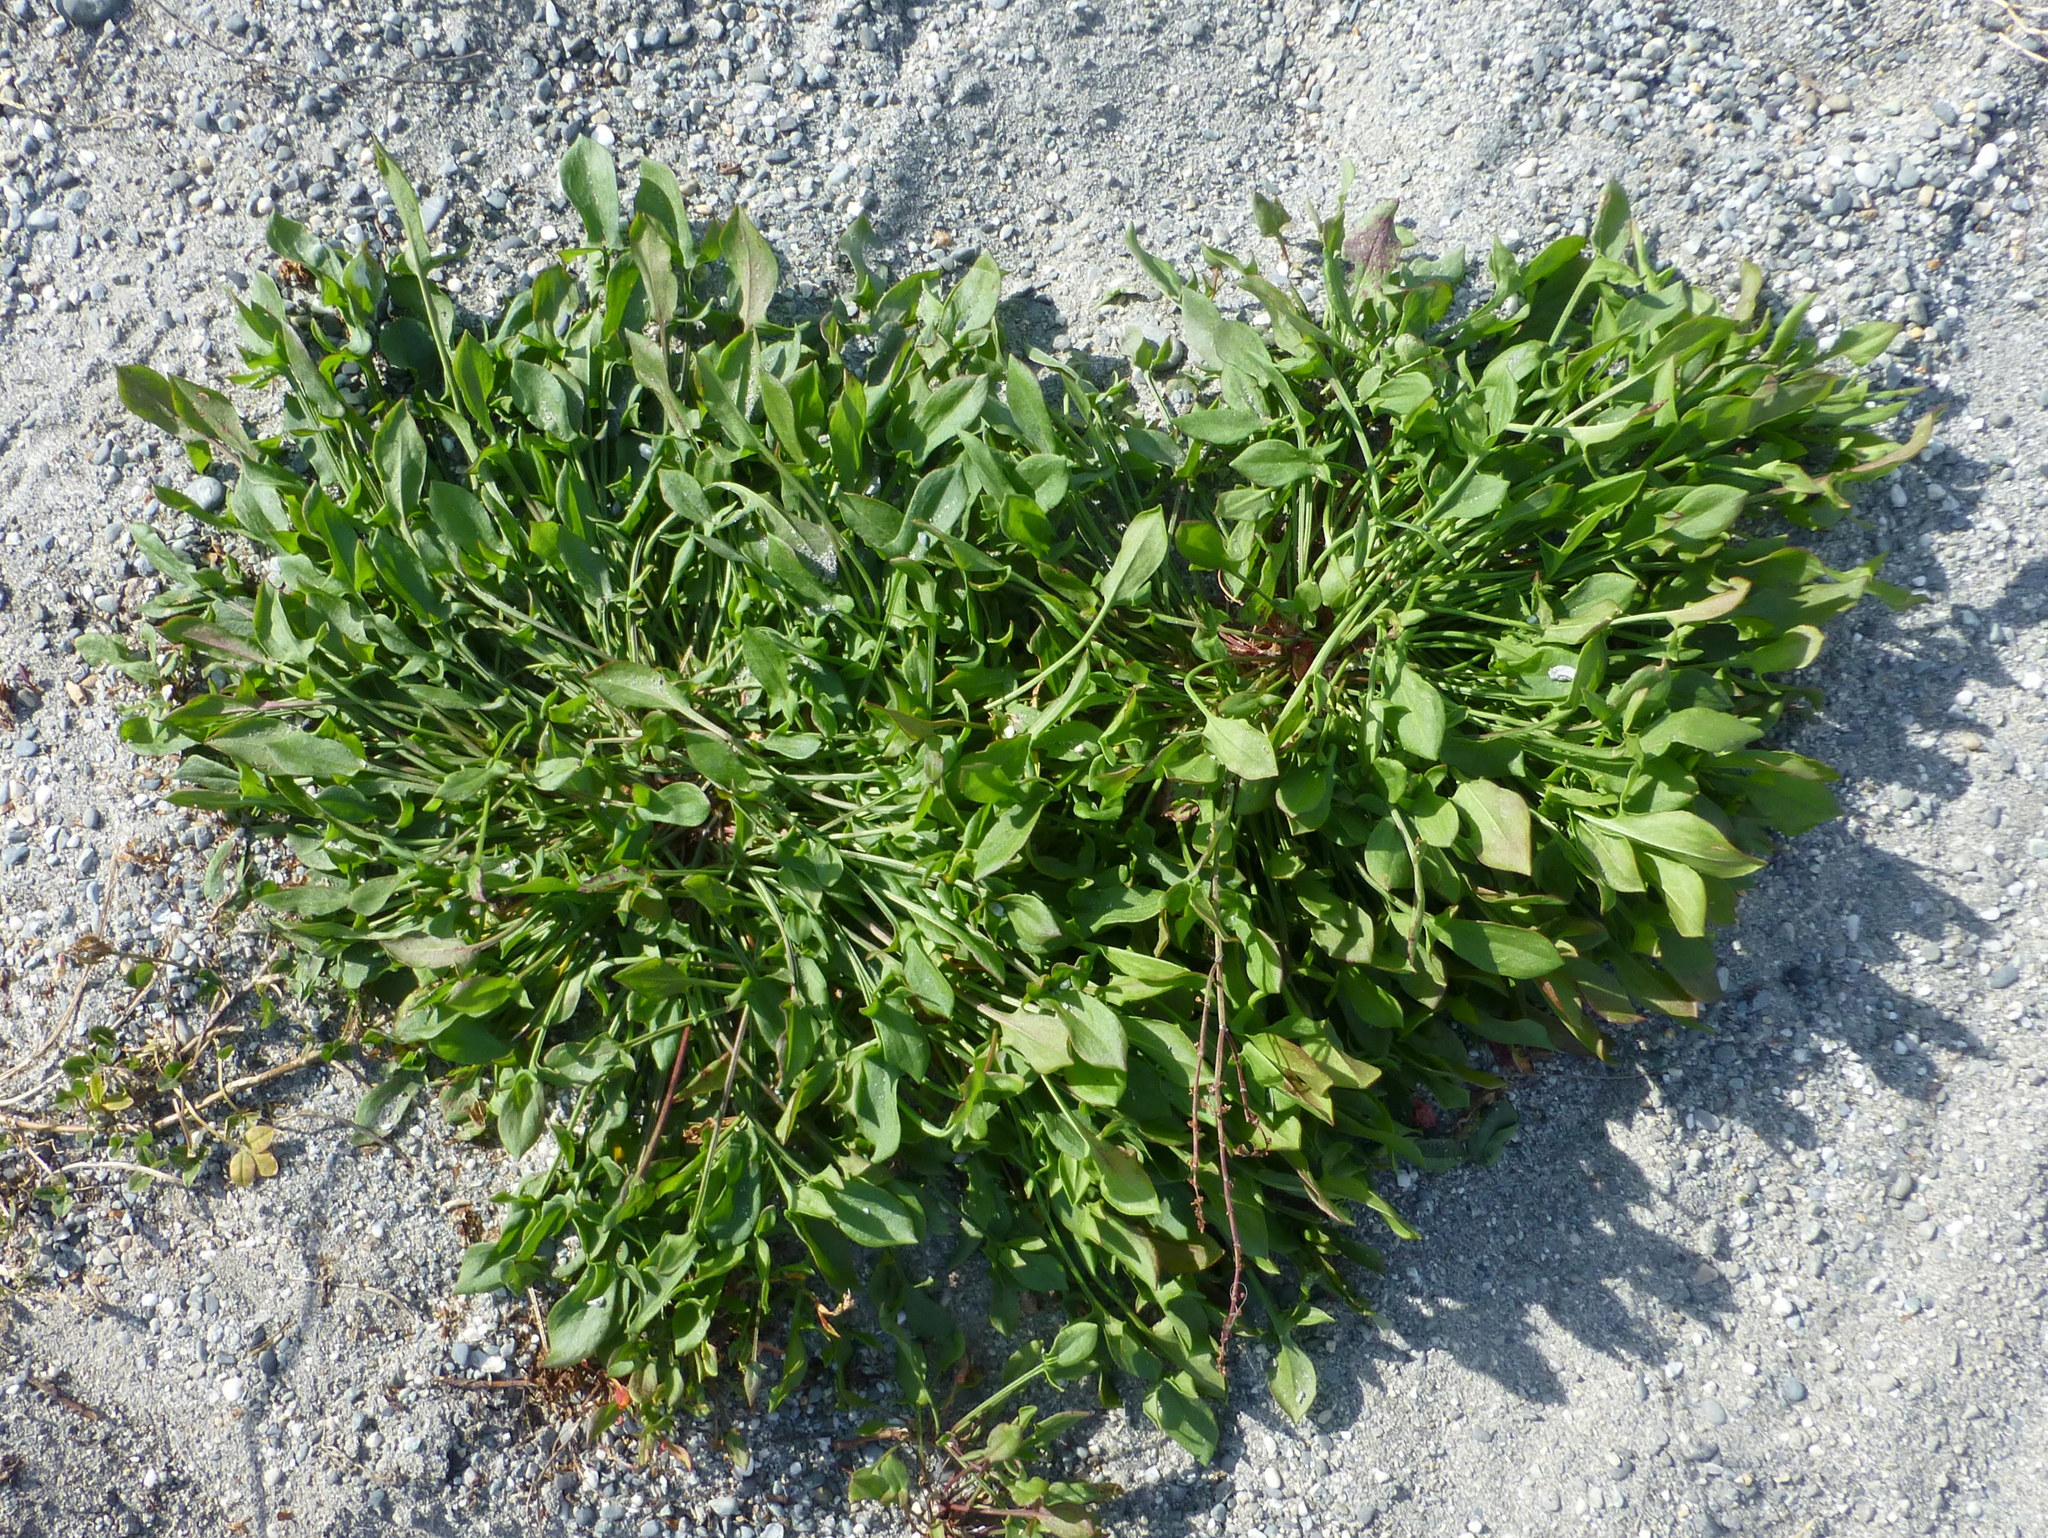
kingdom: Plantae
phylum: Tracheophyta
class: Magnoliopsida
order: Caryophyllales
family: Polygonaceae
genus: Rumex
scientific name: Rumex acetosella
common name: Common sheep sorrel
